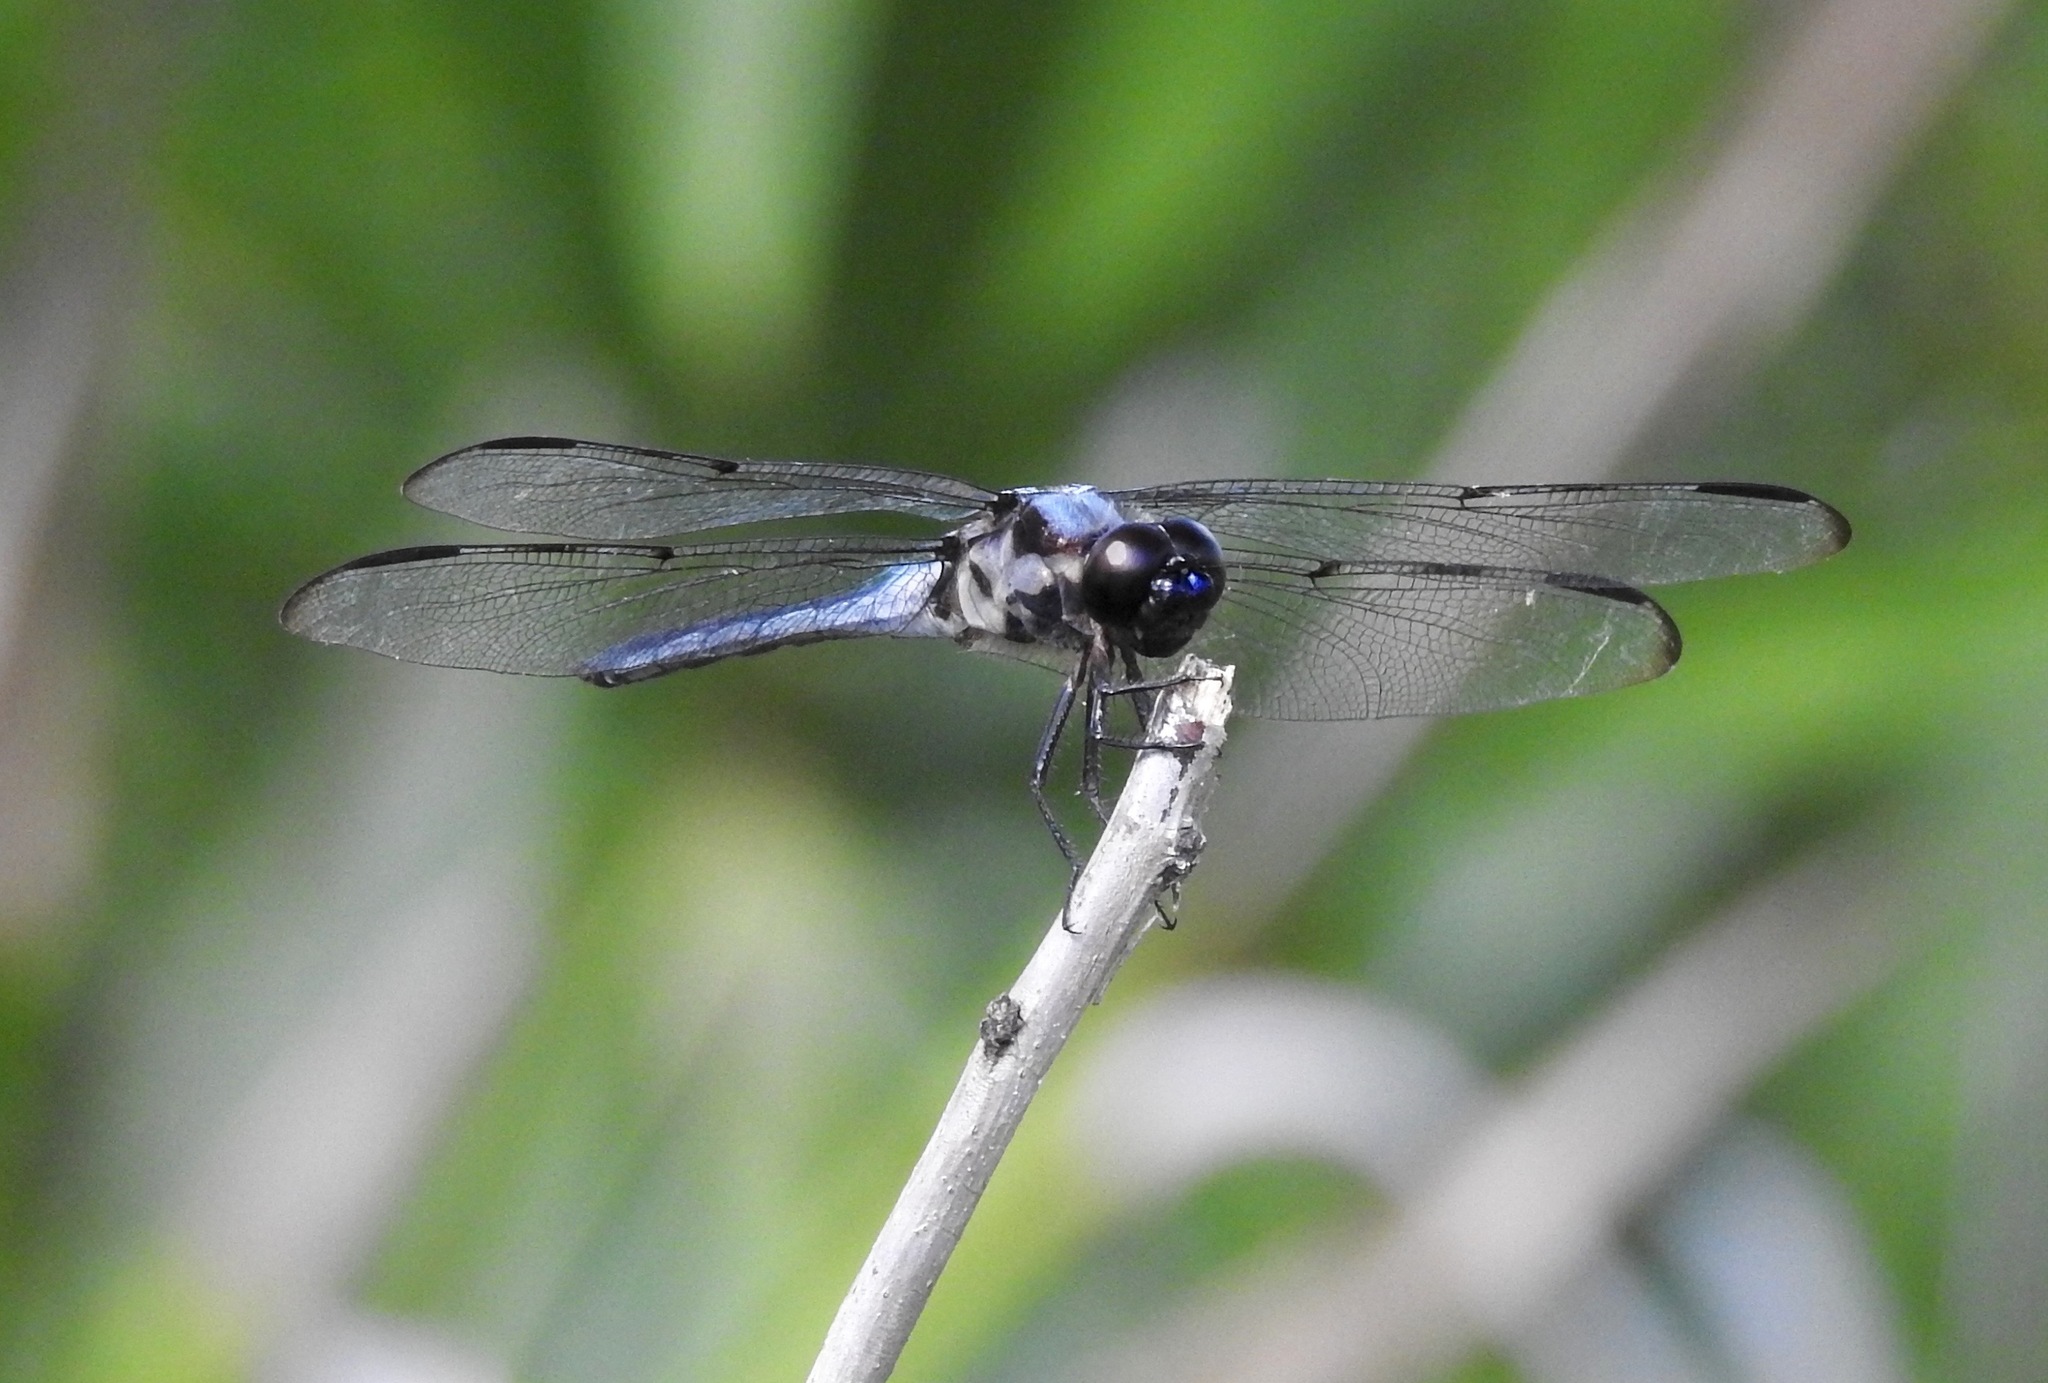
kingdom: Animalia
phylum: Arthropoda
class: Insecta
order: Odonata
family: Libellulidae
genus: Libellula
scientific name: Libellula axilena
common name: Bar-winged skimmer
